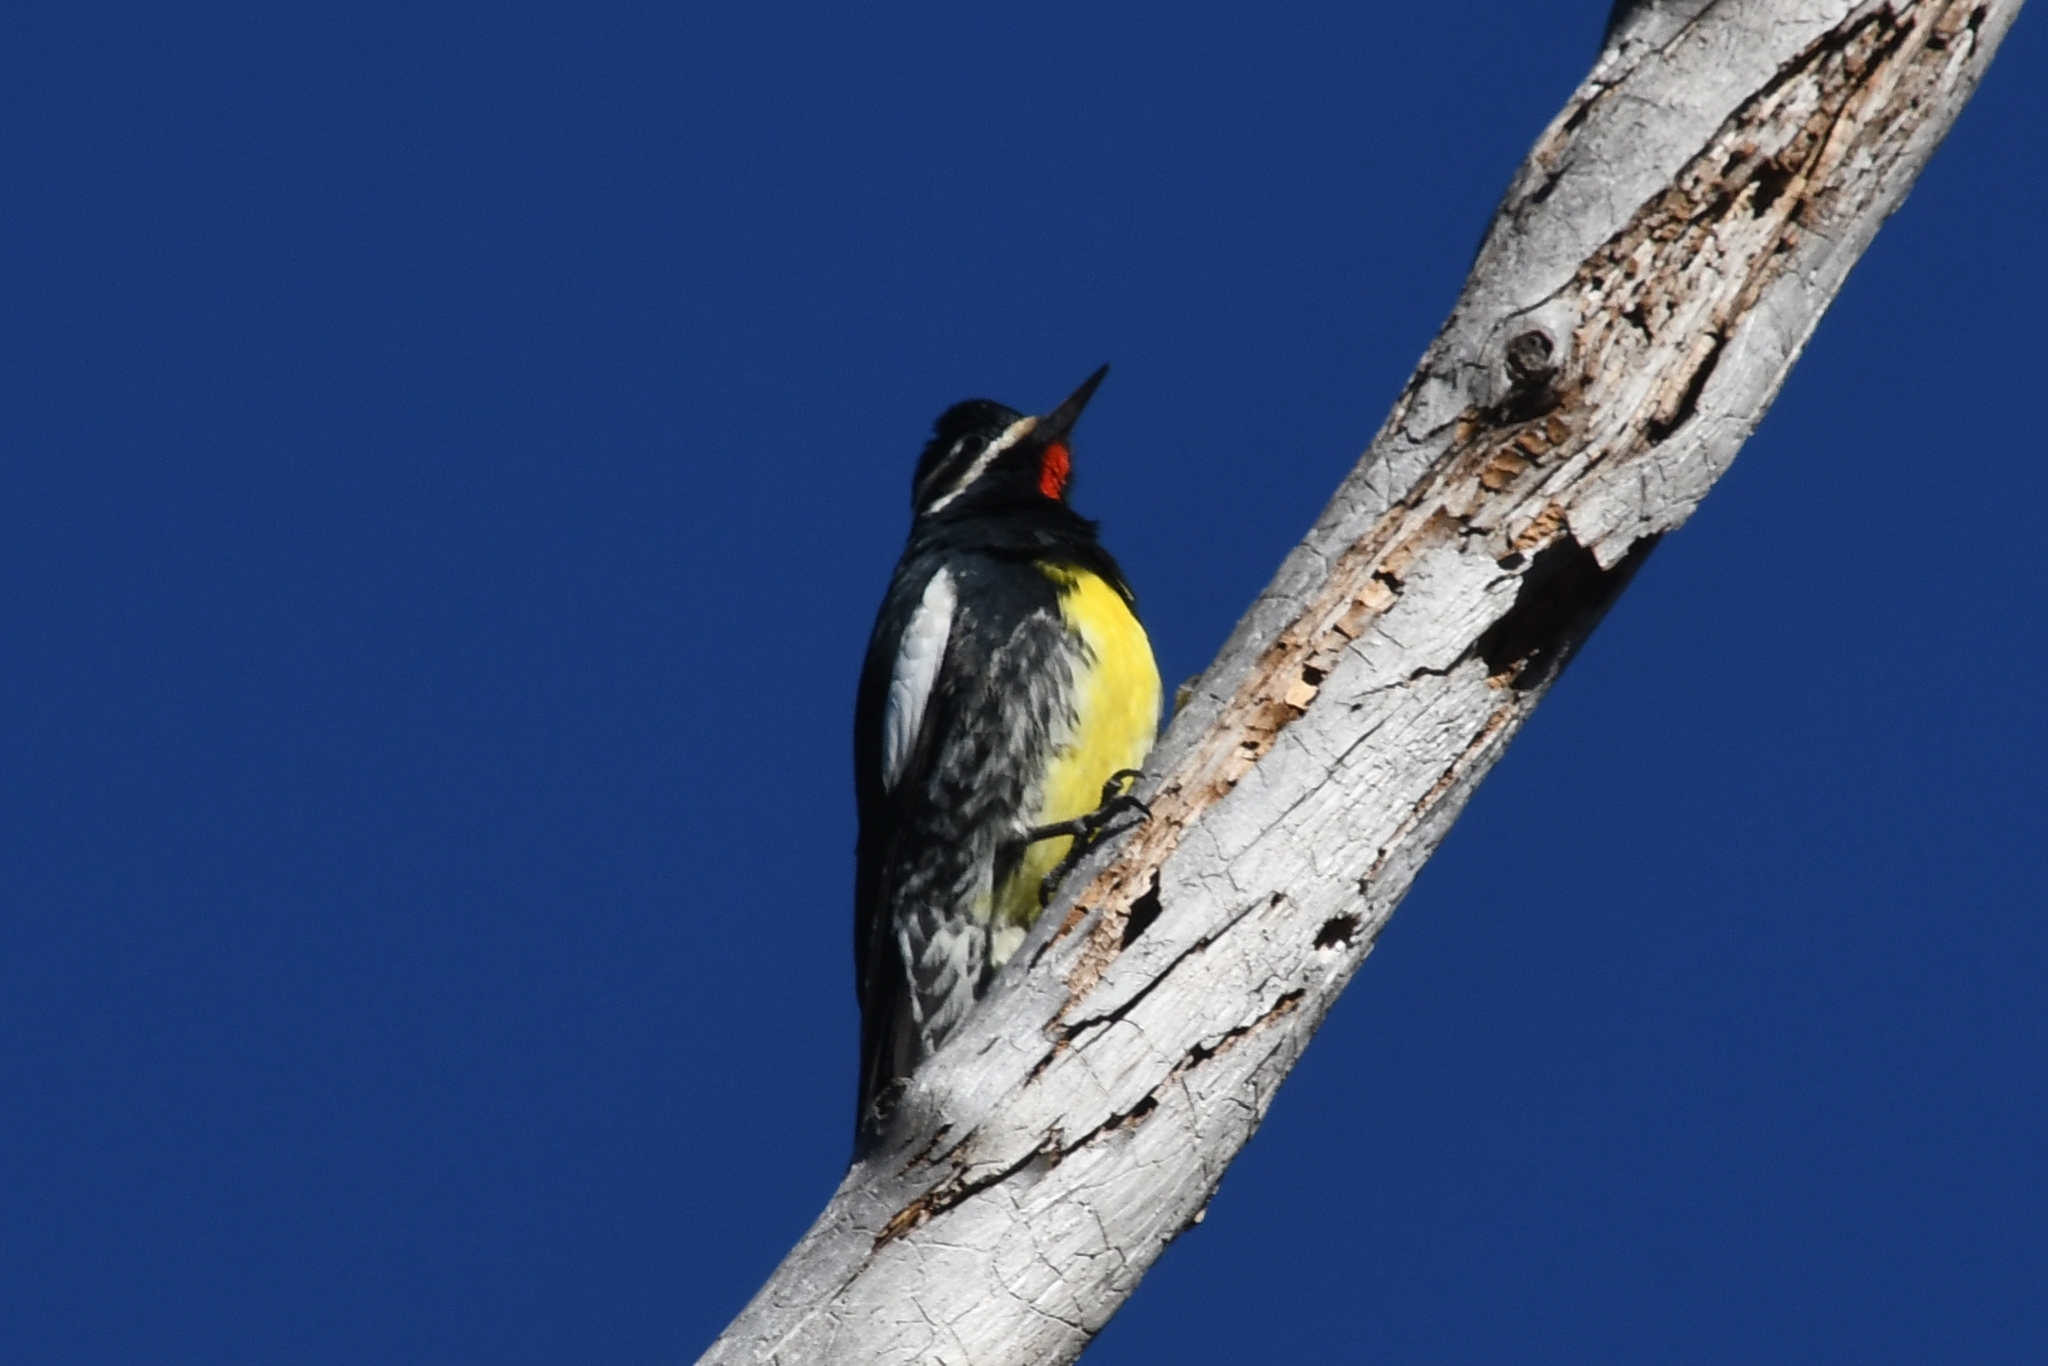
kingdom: Animalia
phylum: Chordata
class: Aves
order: Piciformes
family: Picidae
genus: Sphyrapicus
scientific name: Sphyrapicus thyroideus
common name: Williamson's sapsucker
